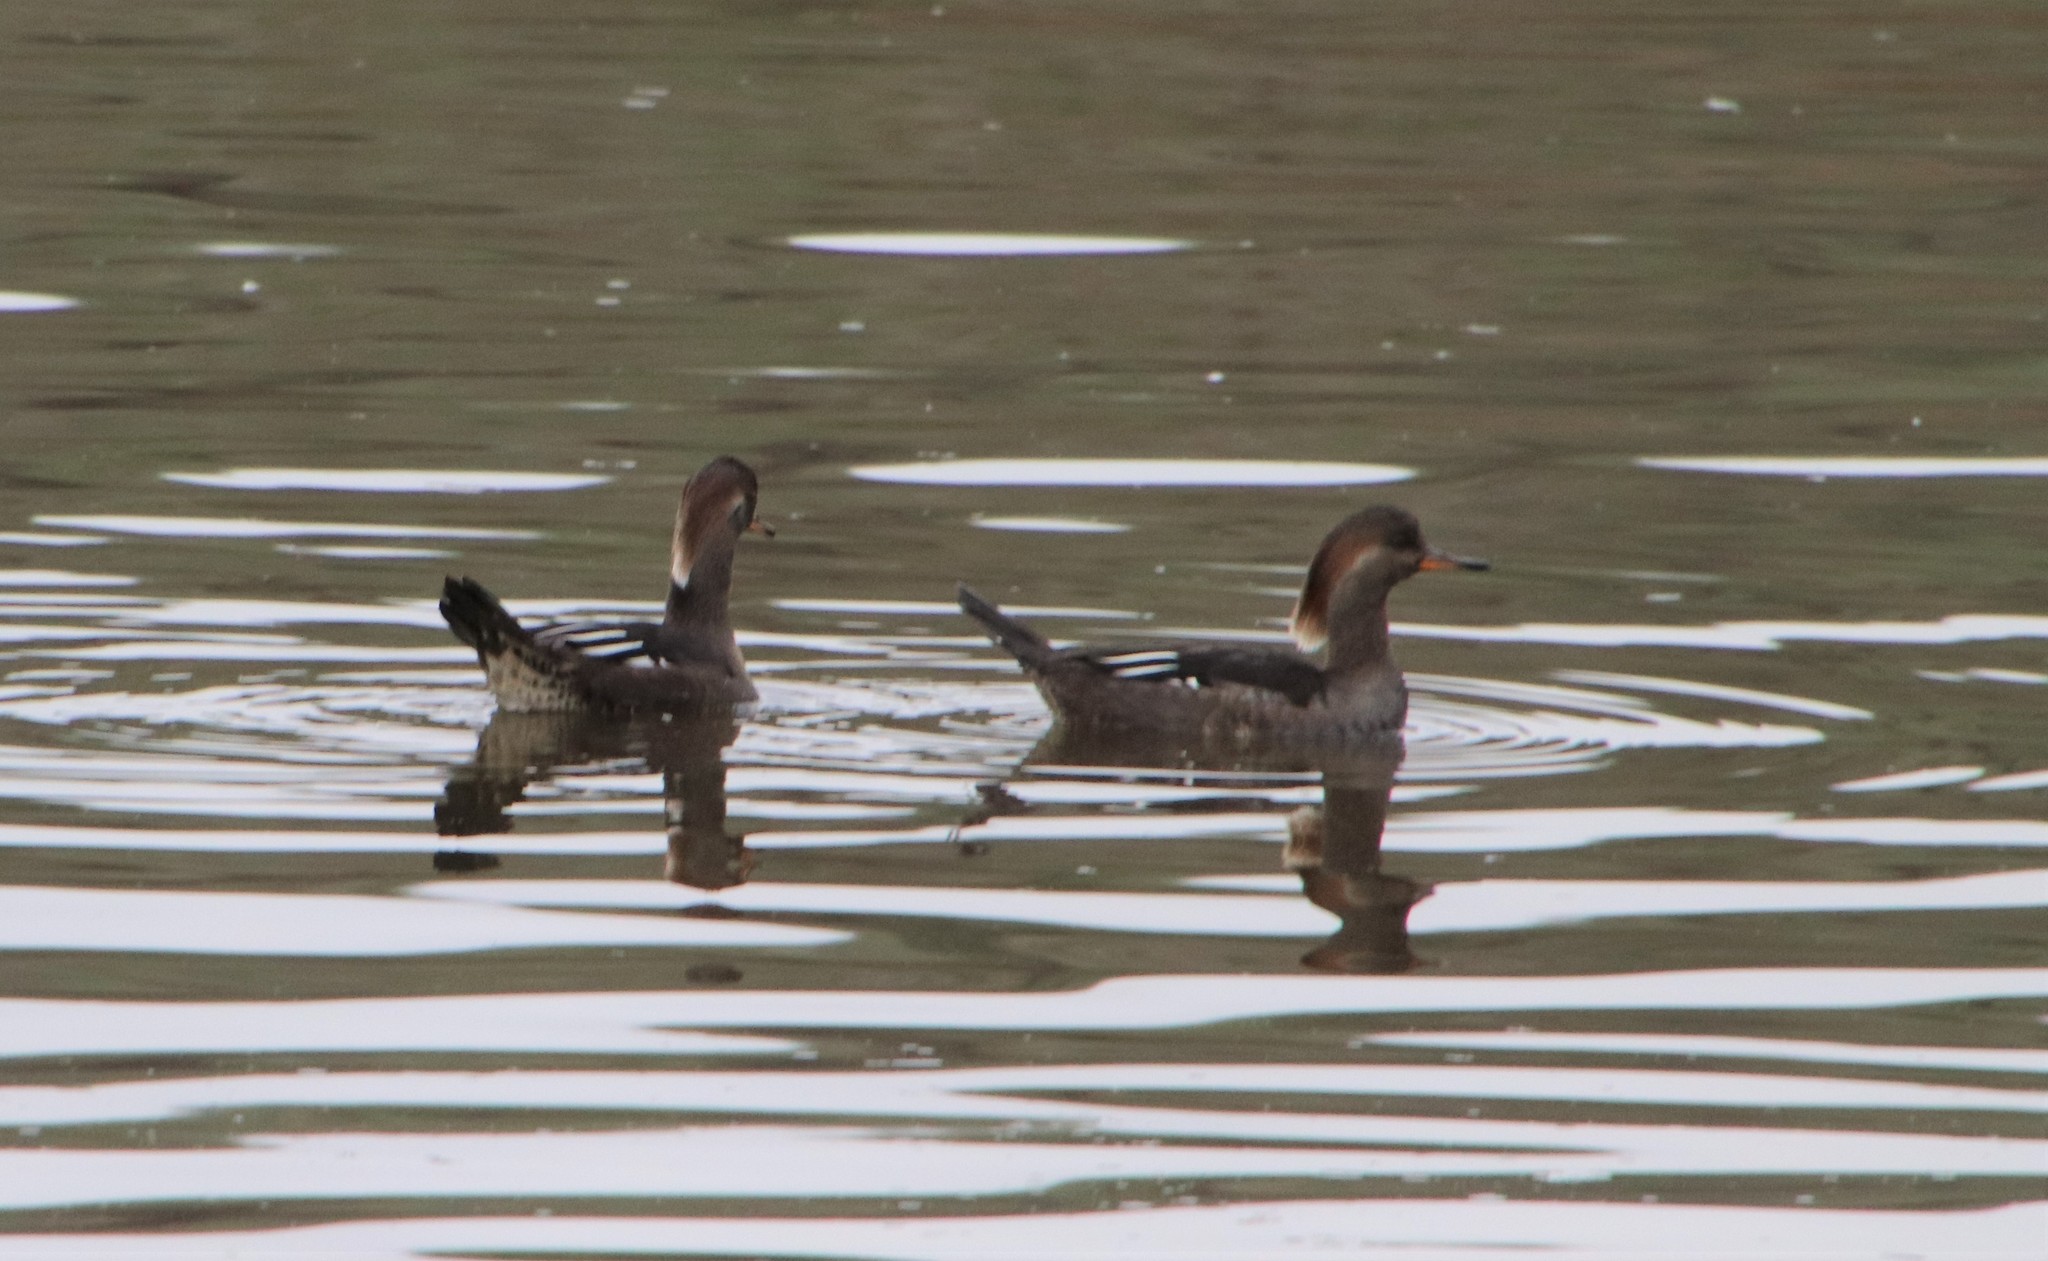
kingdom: Animalia
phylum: Chordata
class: Aves
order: Anseriformes
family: Anatidae
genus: Lophodytes
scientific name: Lophodytes cucullatus
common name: Hooded merganser
